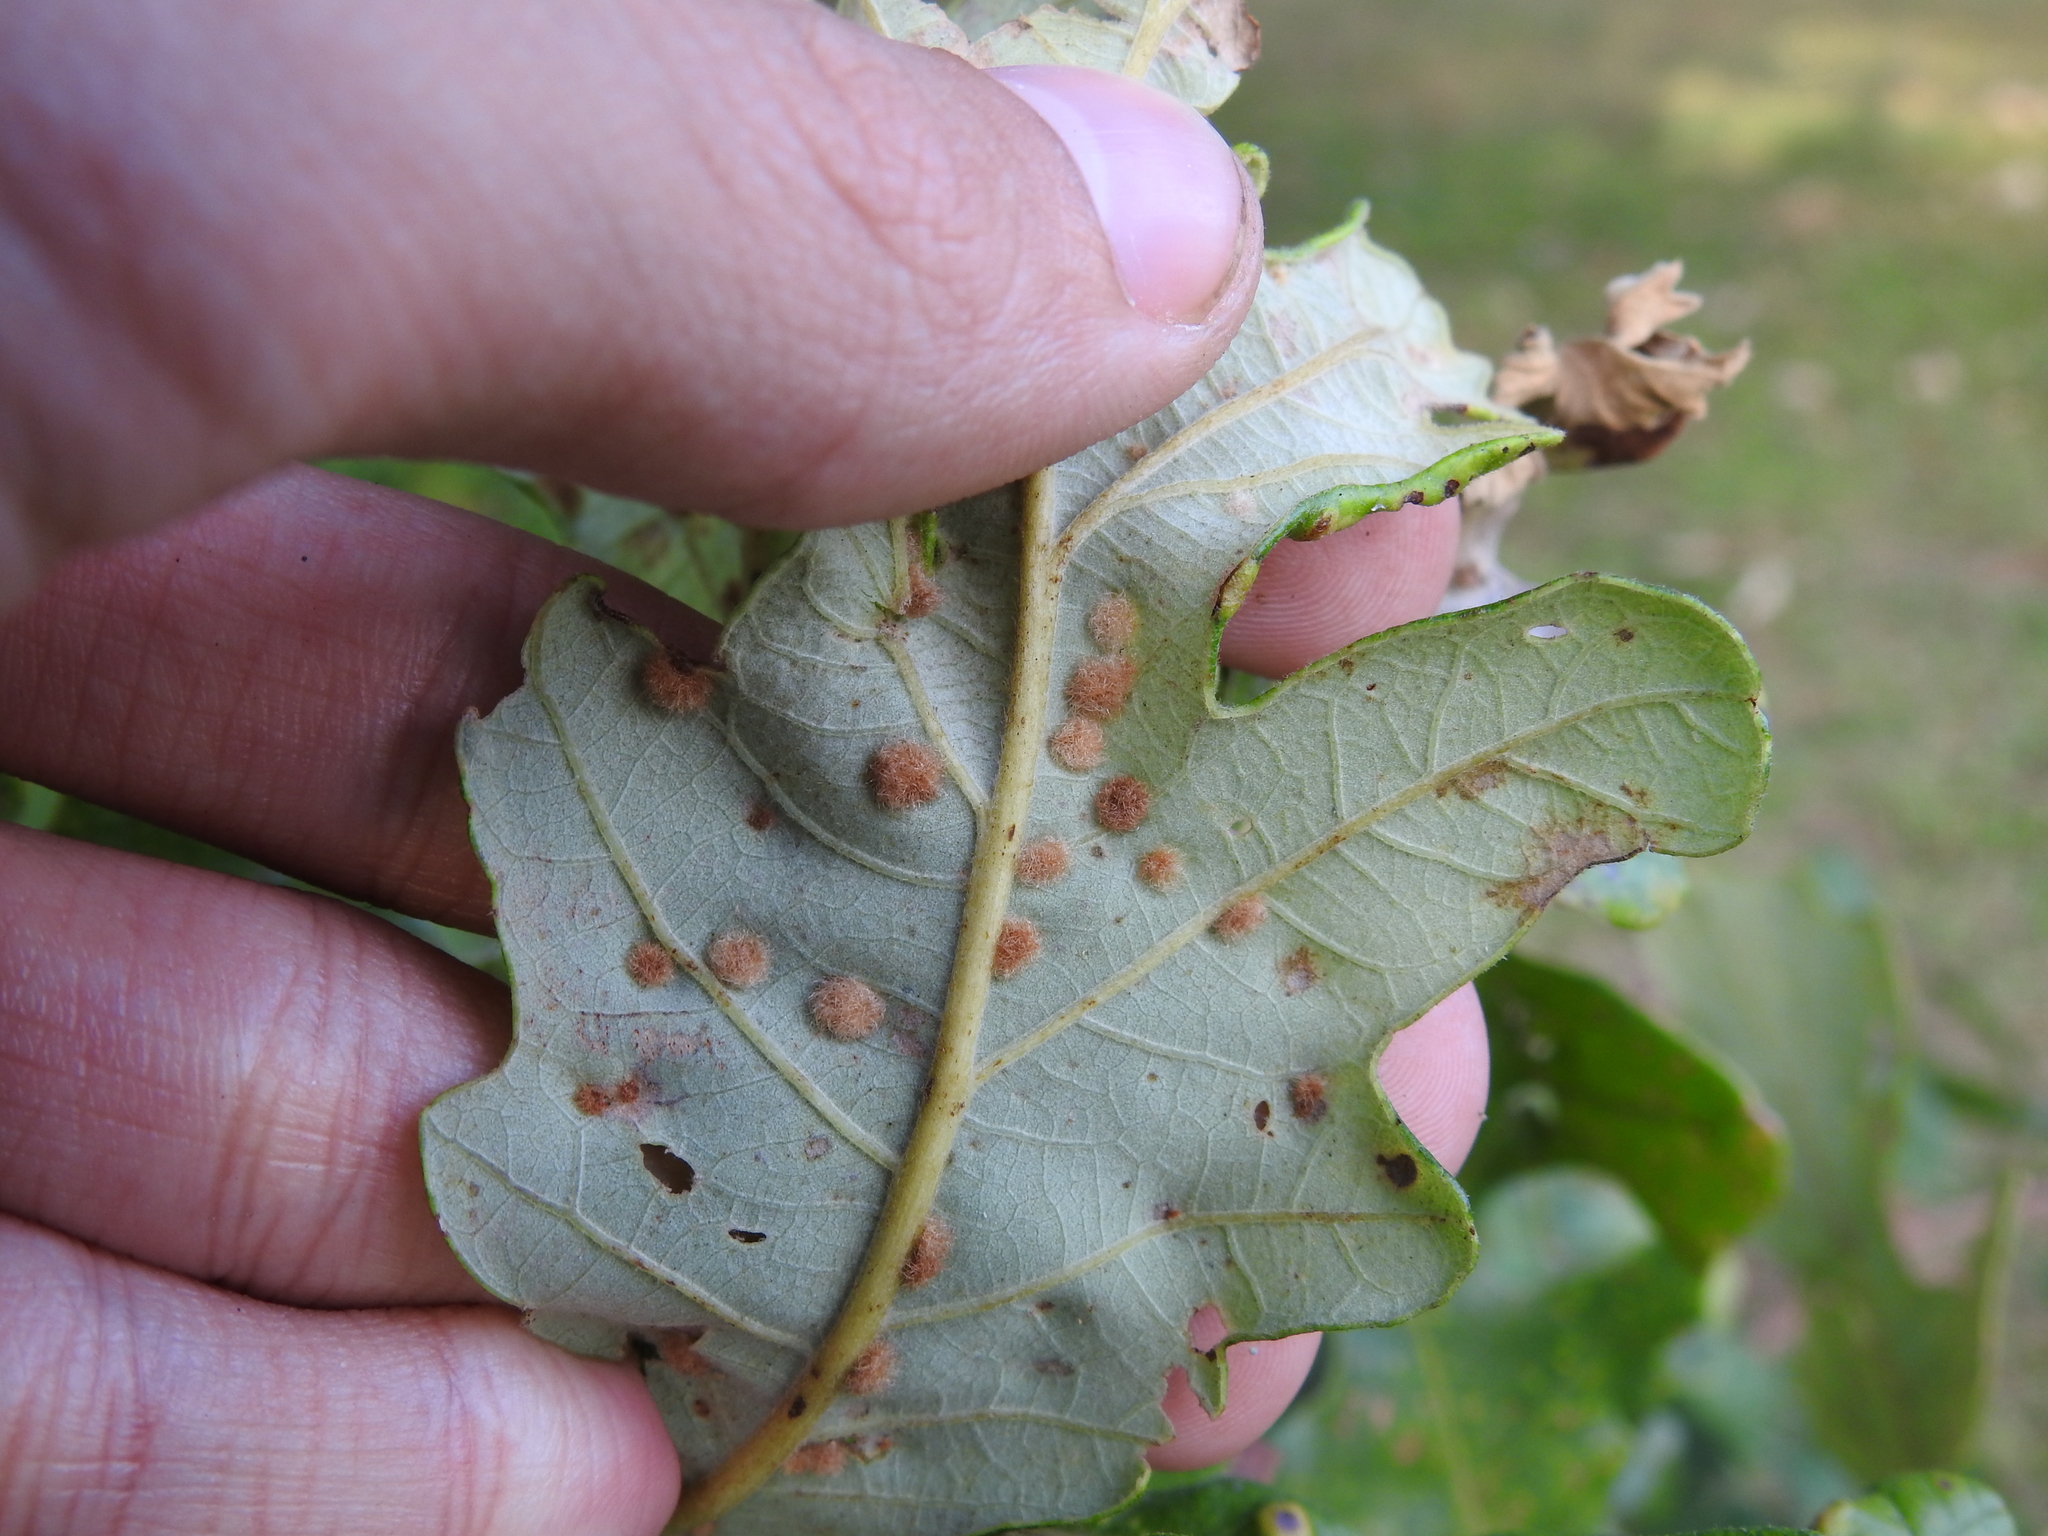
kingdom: Animalia
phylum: Arthropoda
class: Insecta
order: Hymenoptera
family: Cynipidae
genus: Neuroterus
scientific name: Neuroterus quercusverrucarum
